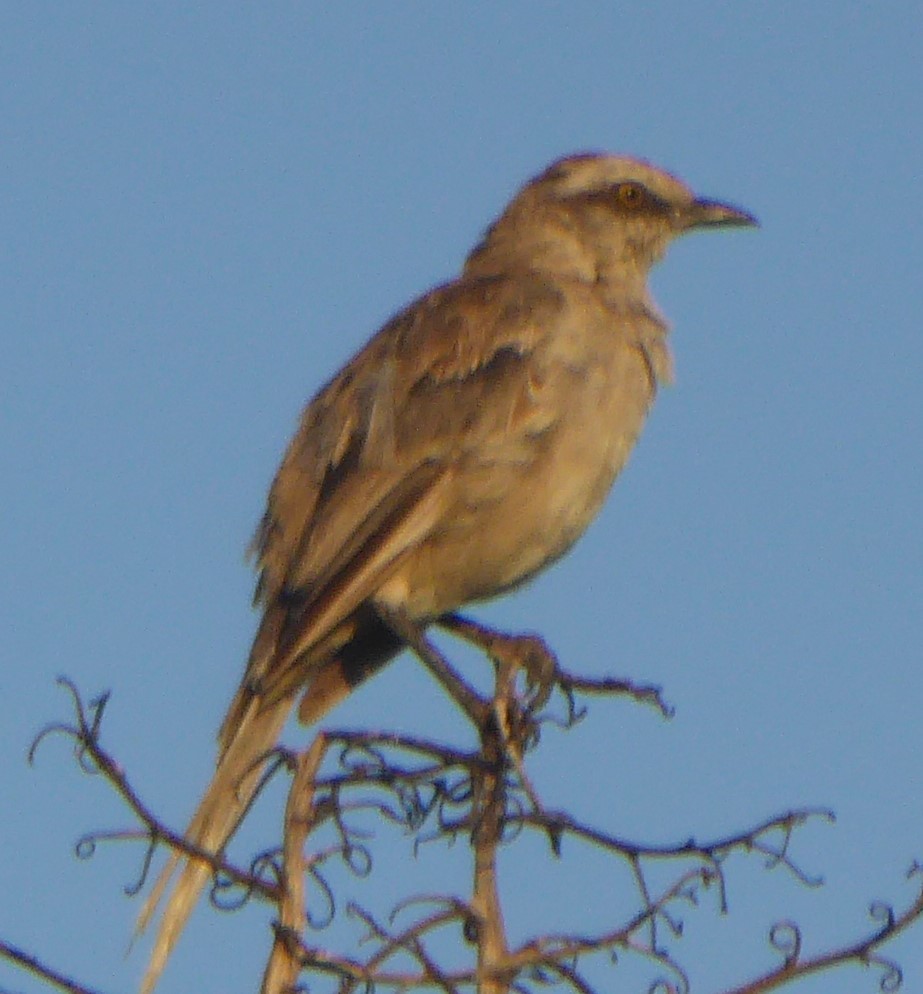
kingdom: Animalia
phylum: Chordata
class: Aves
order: Passeriformes
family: Mimidae
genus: Mimus
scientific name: Mimus saturninus
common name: Chalk-browed mockingbird
